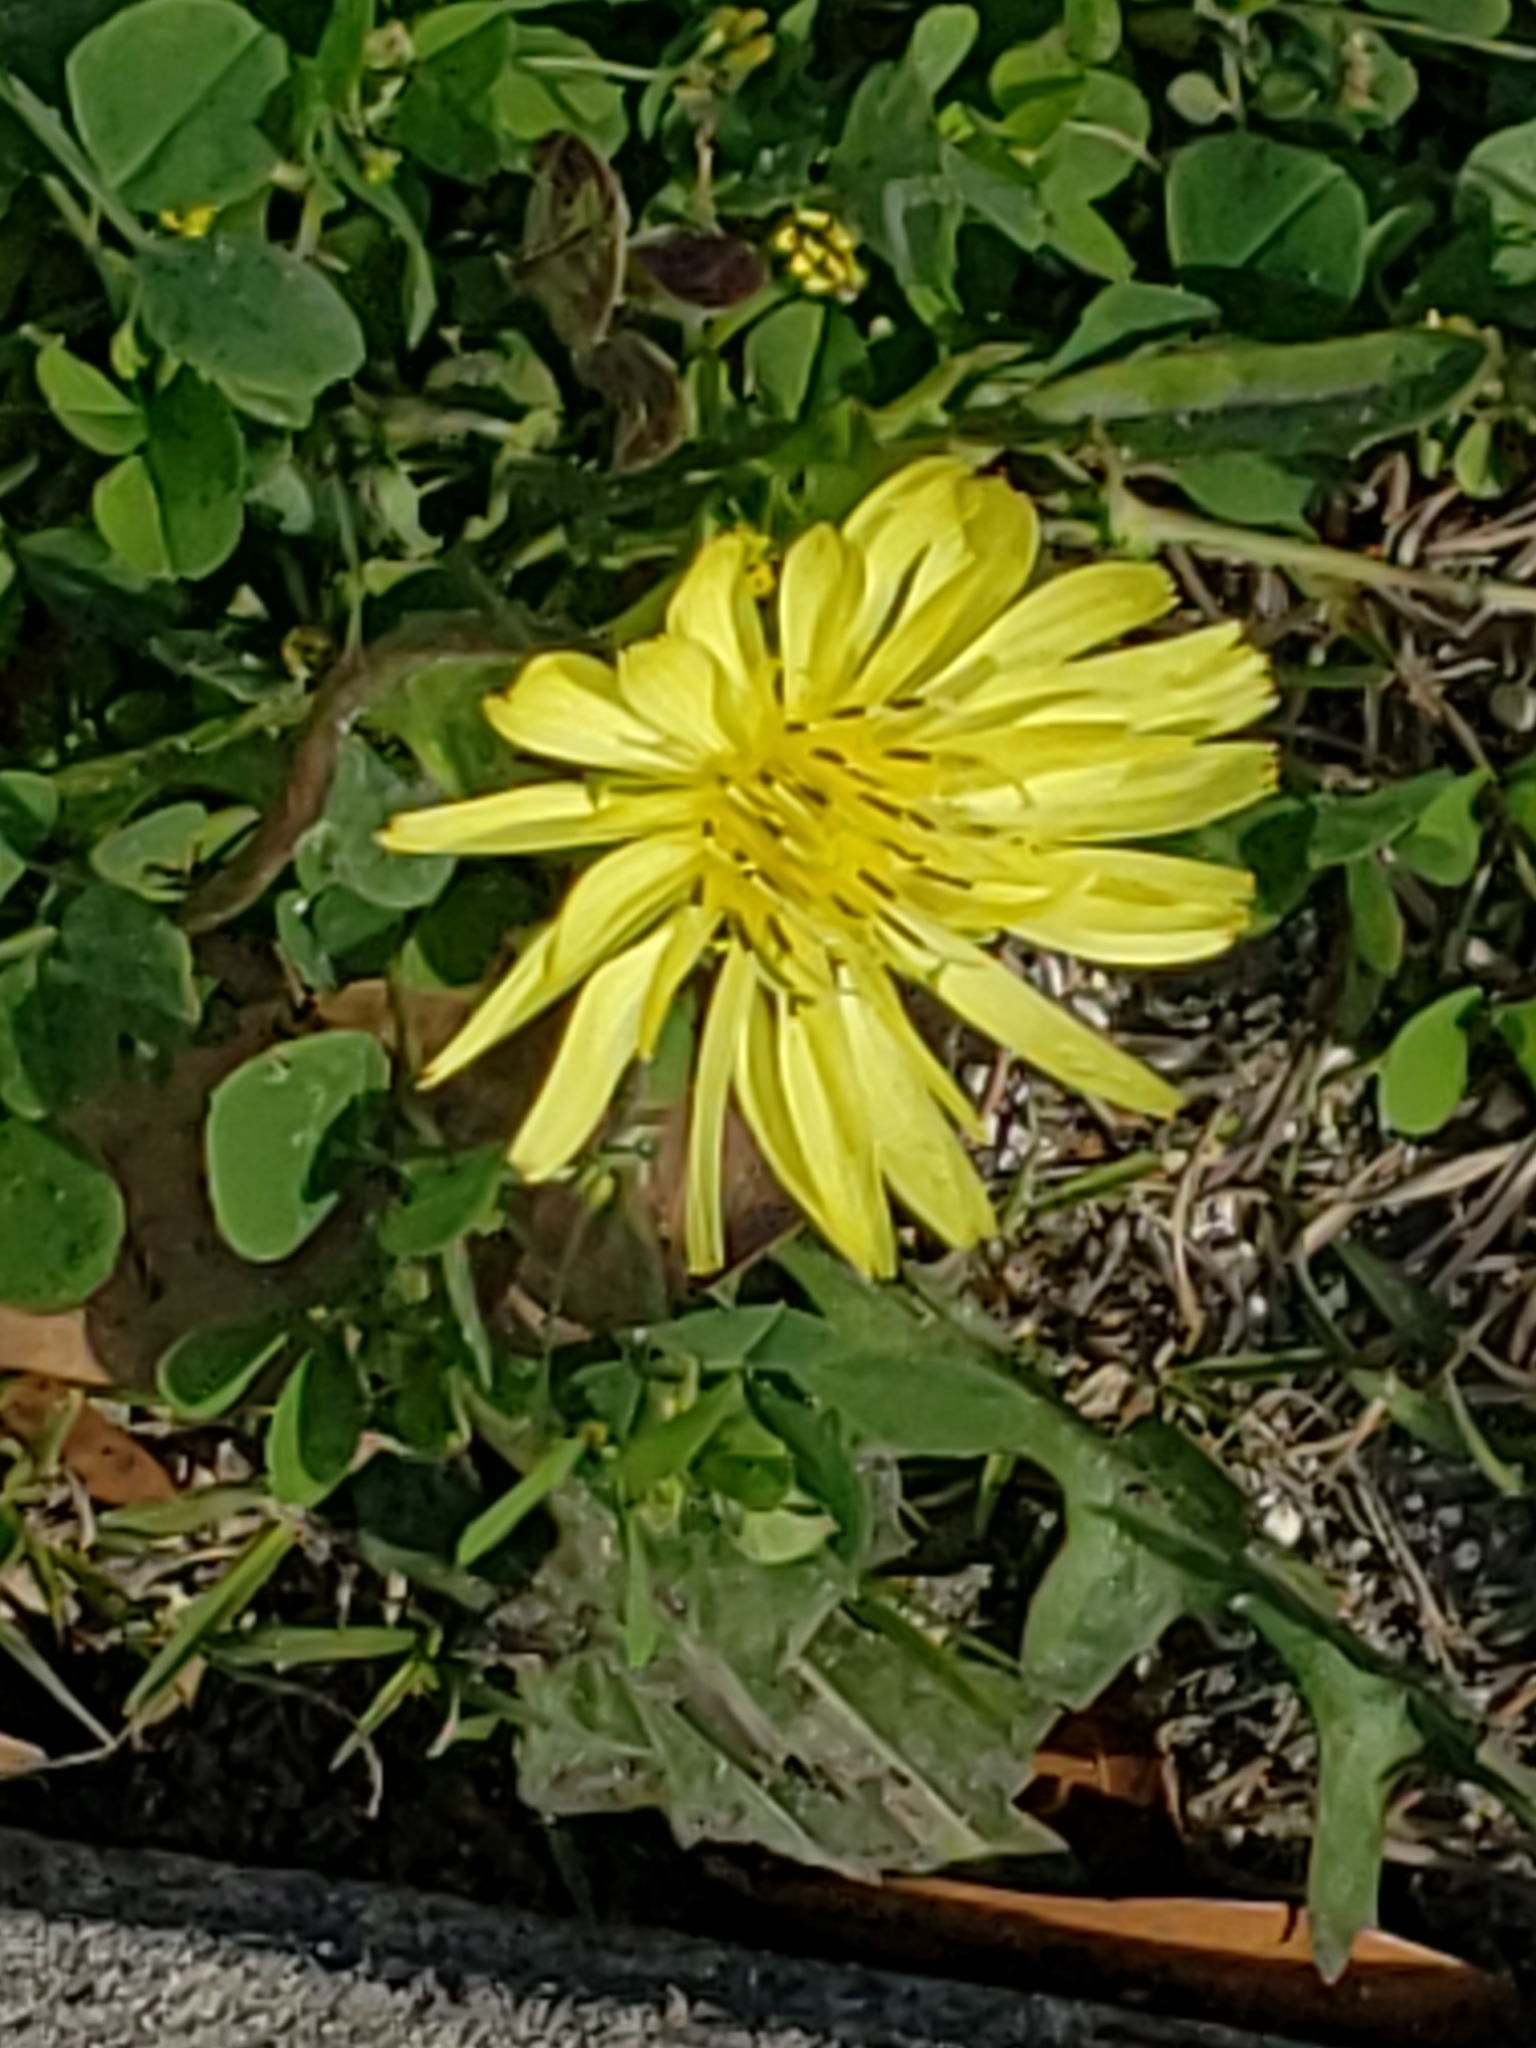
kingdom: Plantae
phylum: Tracheophyta
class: Magnoliopsida
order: Asterales
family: Asteraceae
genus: Pyrrhopappus
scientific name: Pyrrhopappus carolinianus
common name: Carolina desert-chicory
